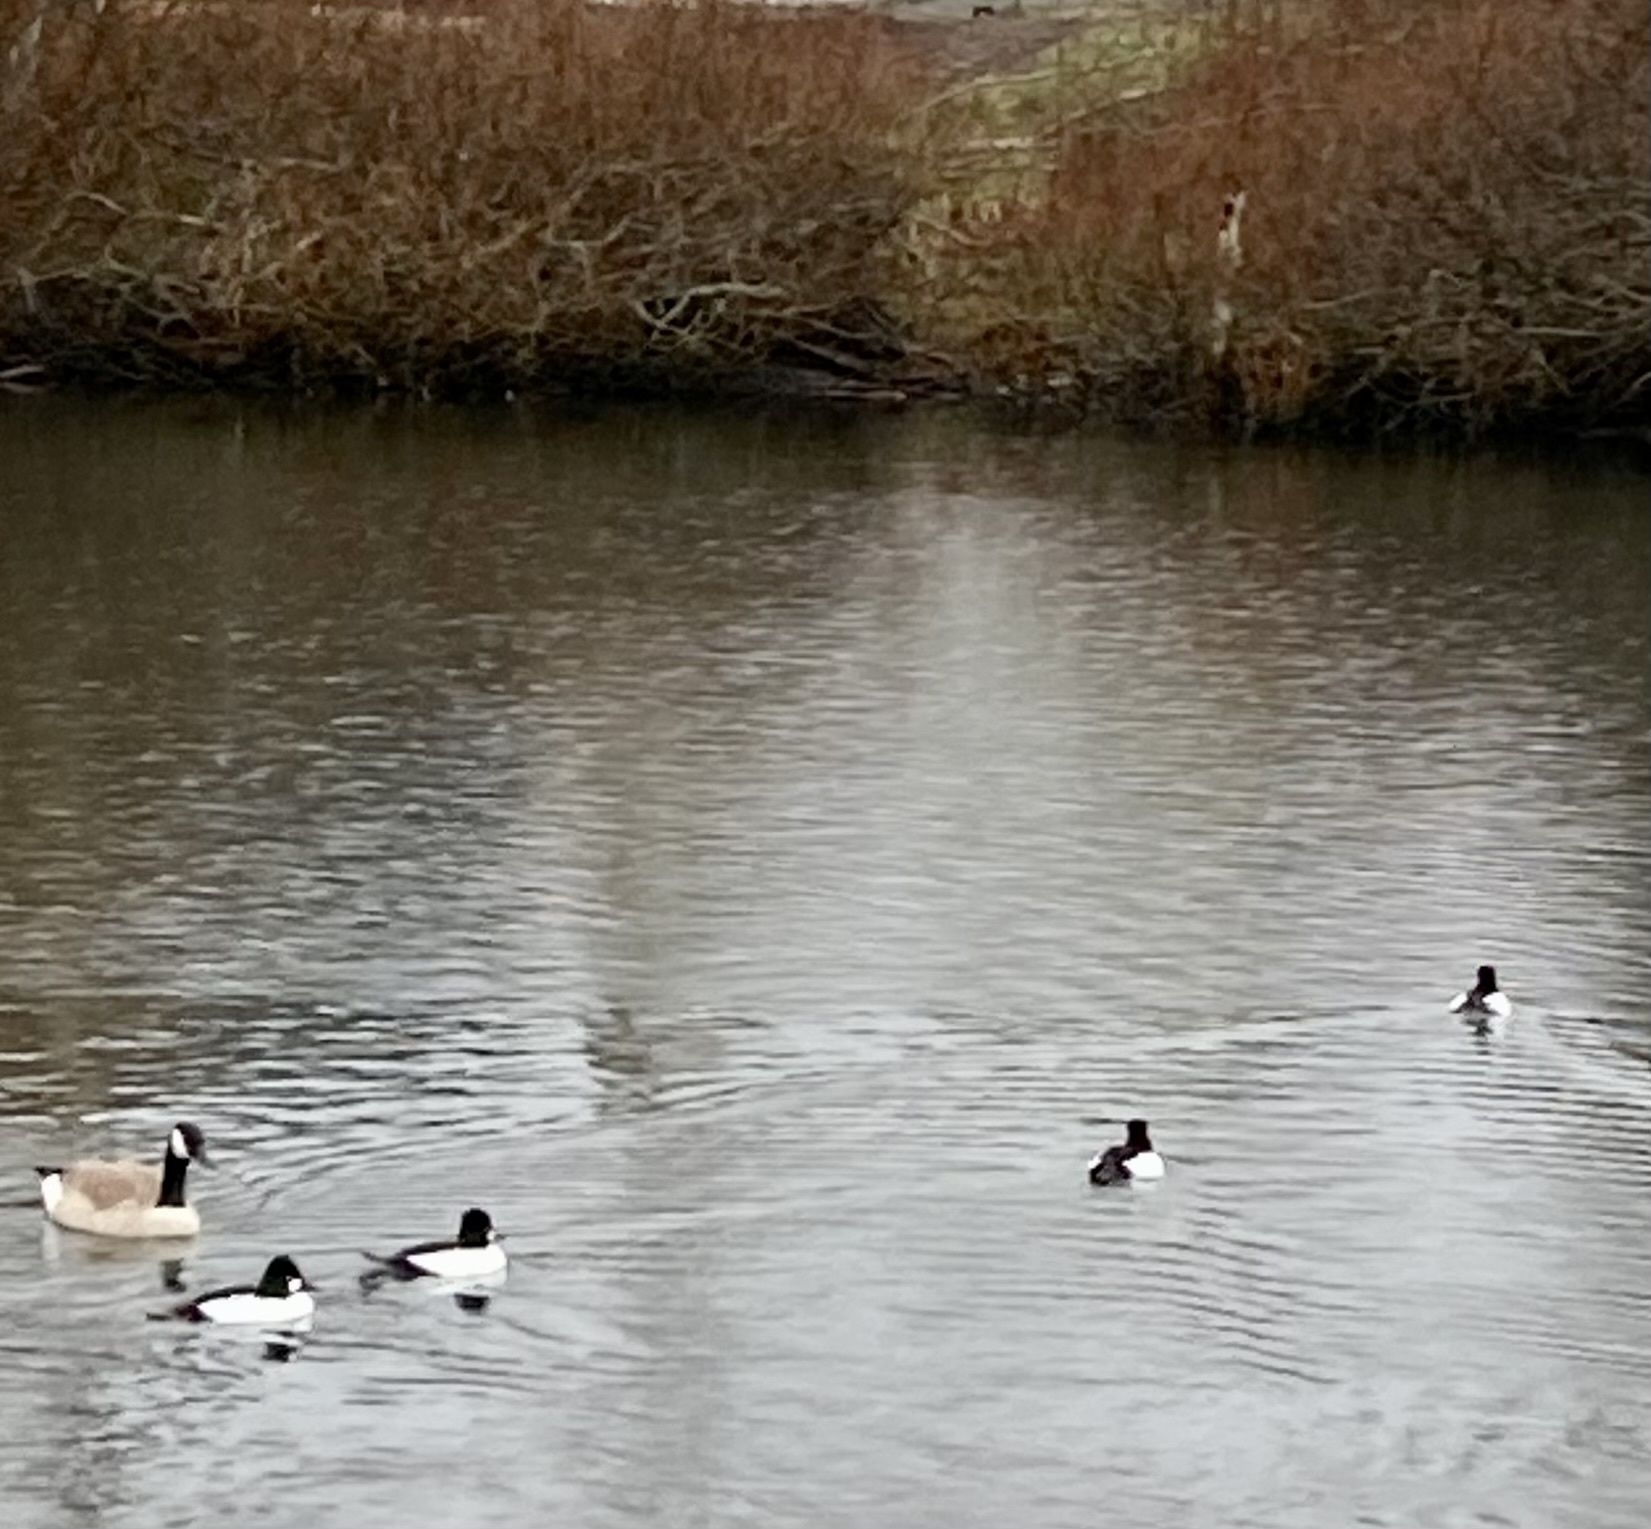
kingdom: Animalia
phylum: Chordata
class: Aves
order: Anseriformes
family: Anatidae
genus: Bucephala
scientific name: Bucephala clangula
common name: Common goldeneye
